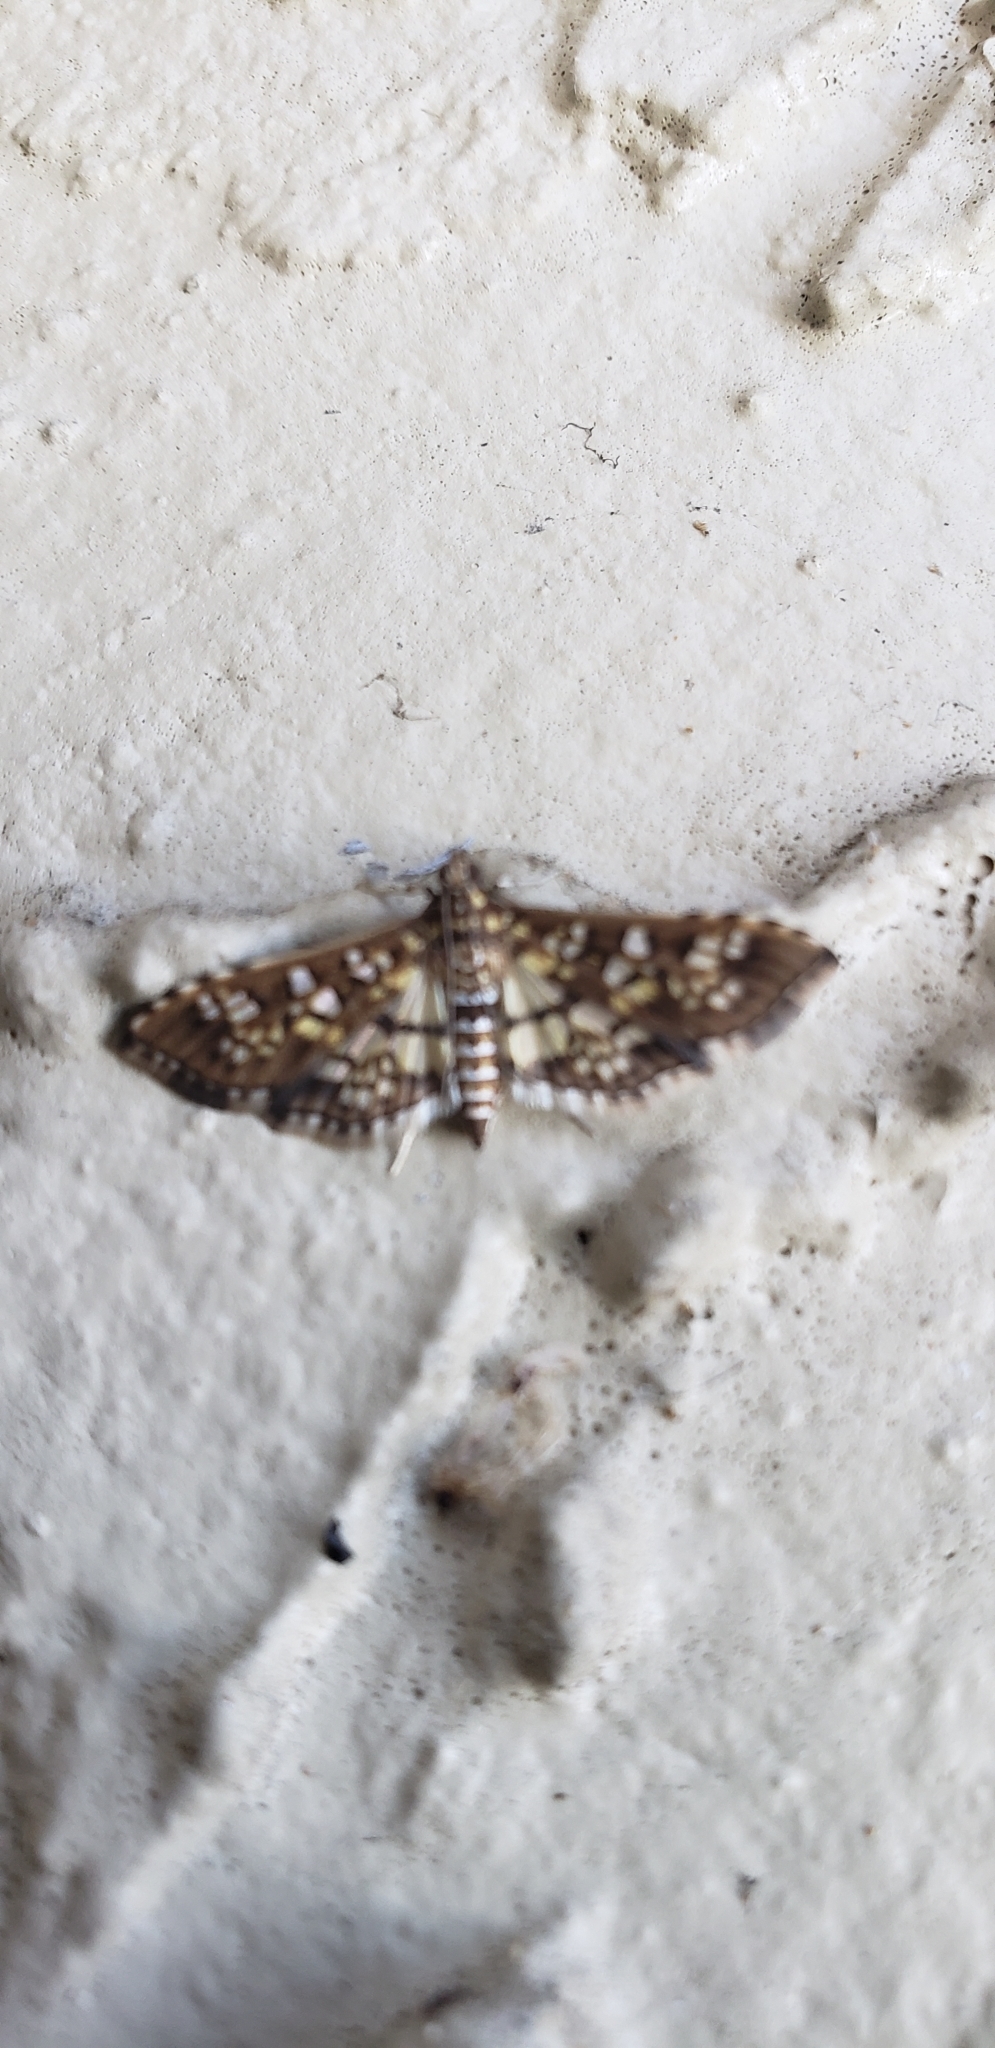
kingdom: Animalia
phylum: Arthropoda
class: Insecta
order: Lepidoptera
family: Crambidae
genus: Samea
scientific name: Samea ecclesialis
